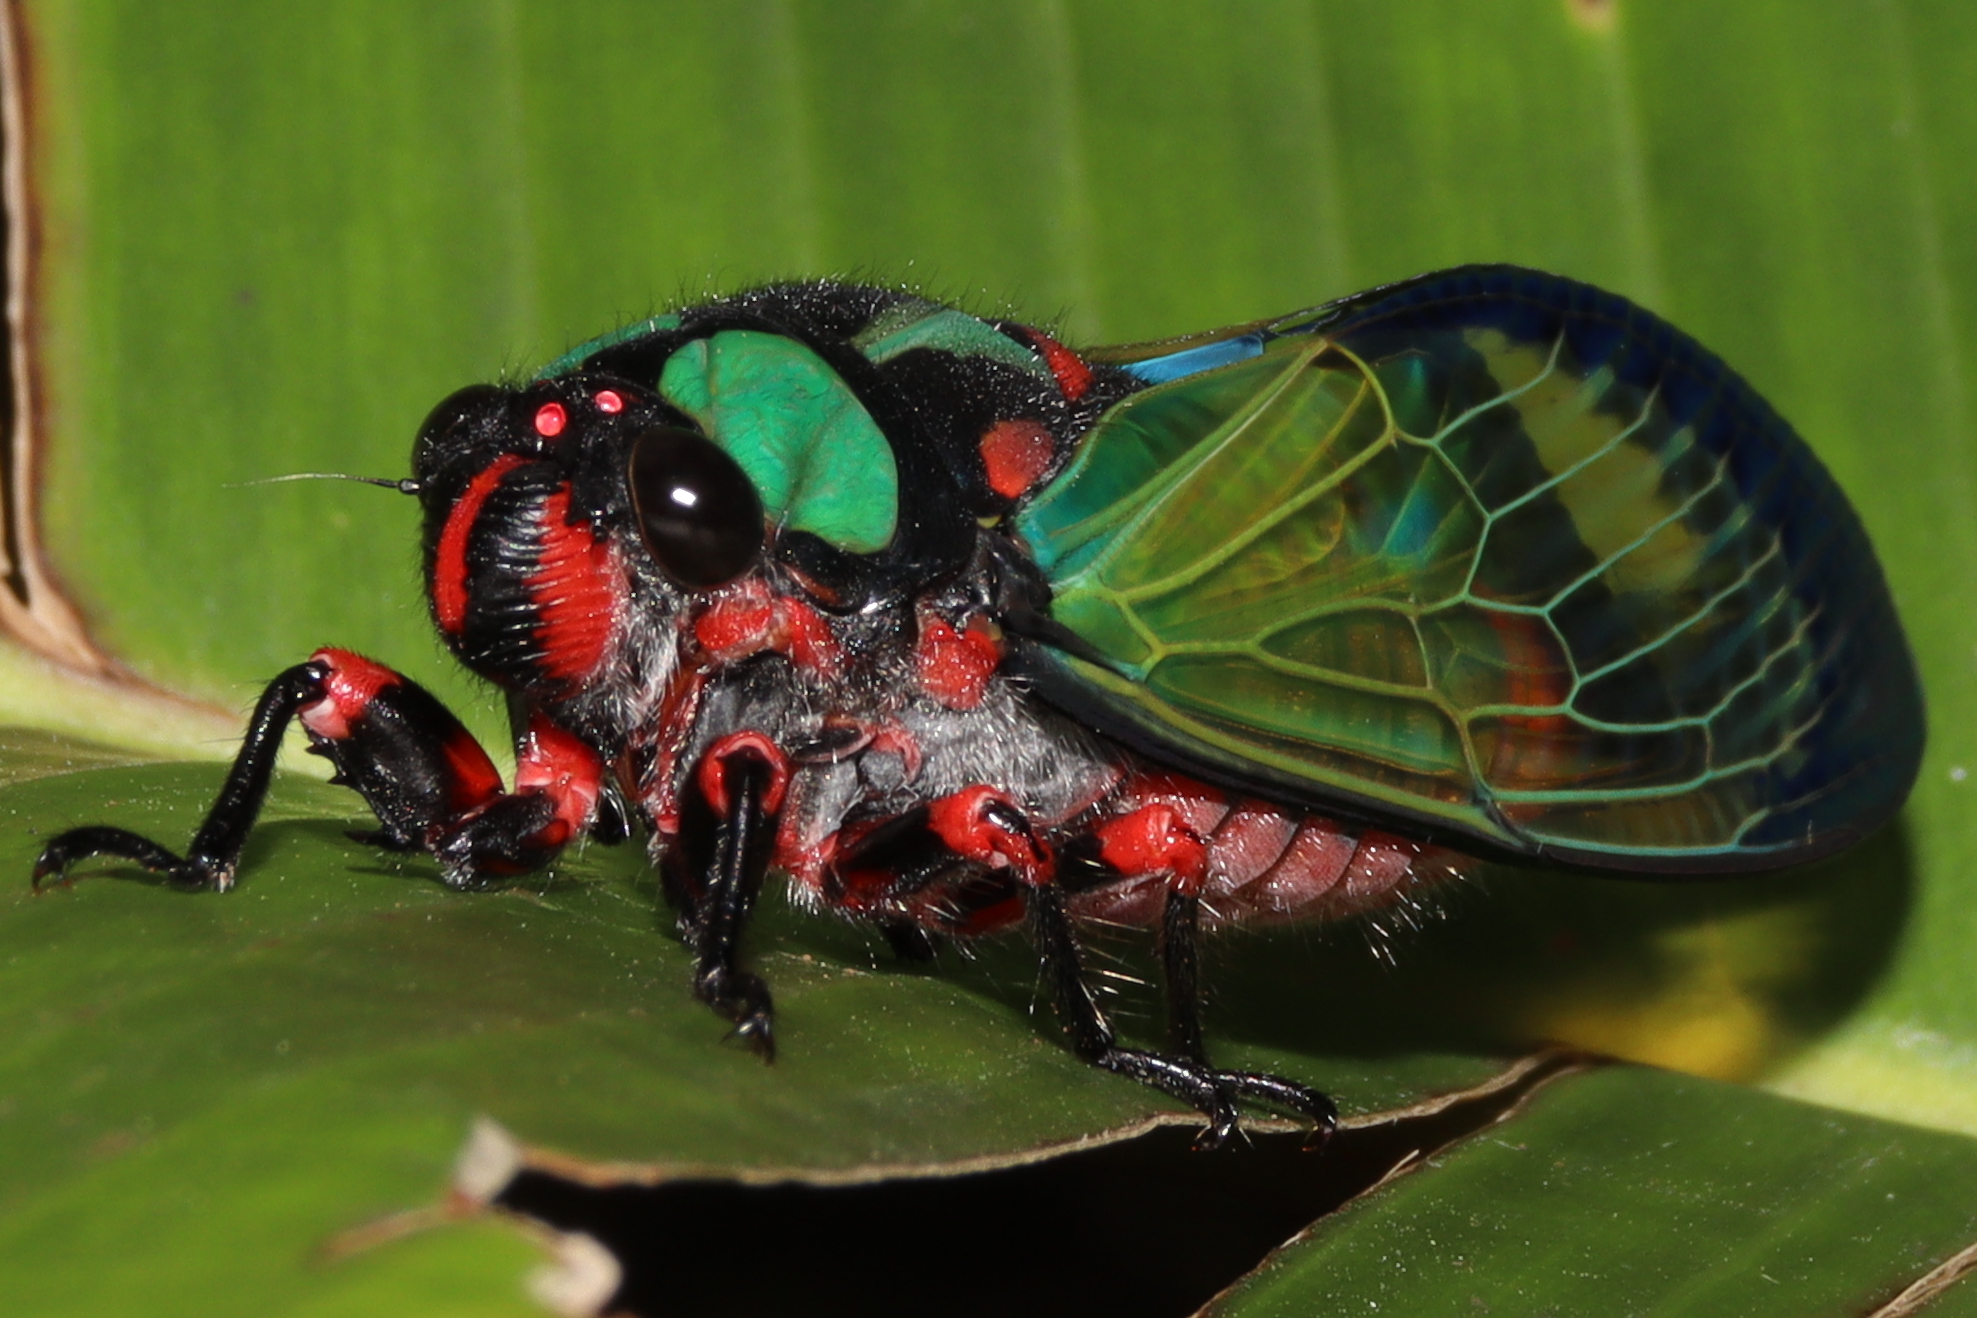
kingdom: Animalia
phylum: Arthropoda
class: Insecta
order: Hemiptera
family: Cicadidae
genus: Carineta
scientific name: Carineta diardi
